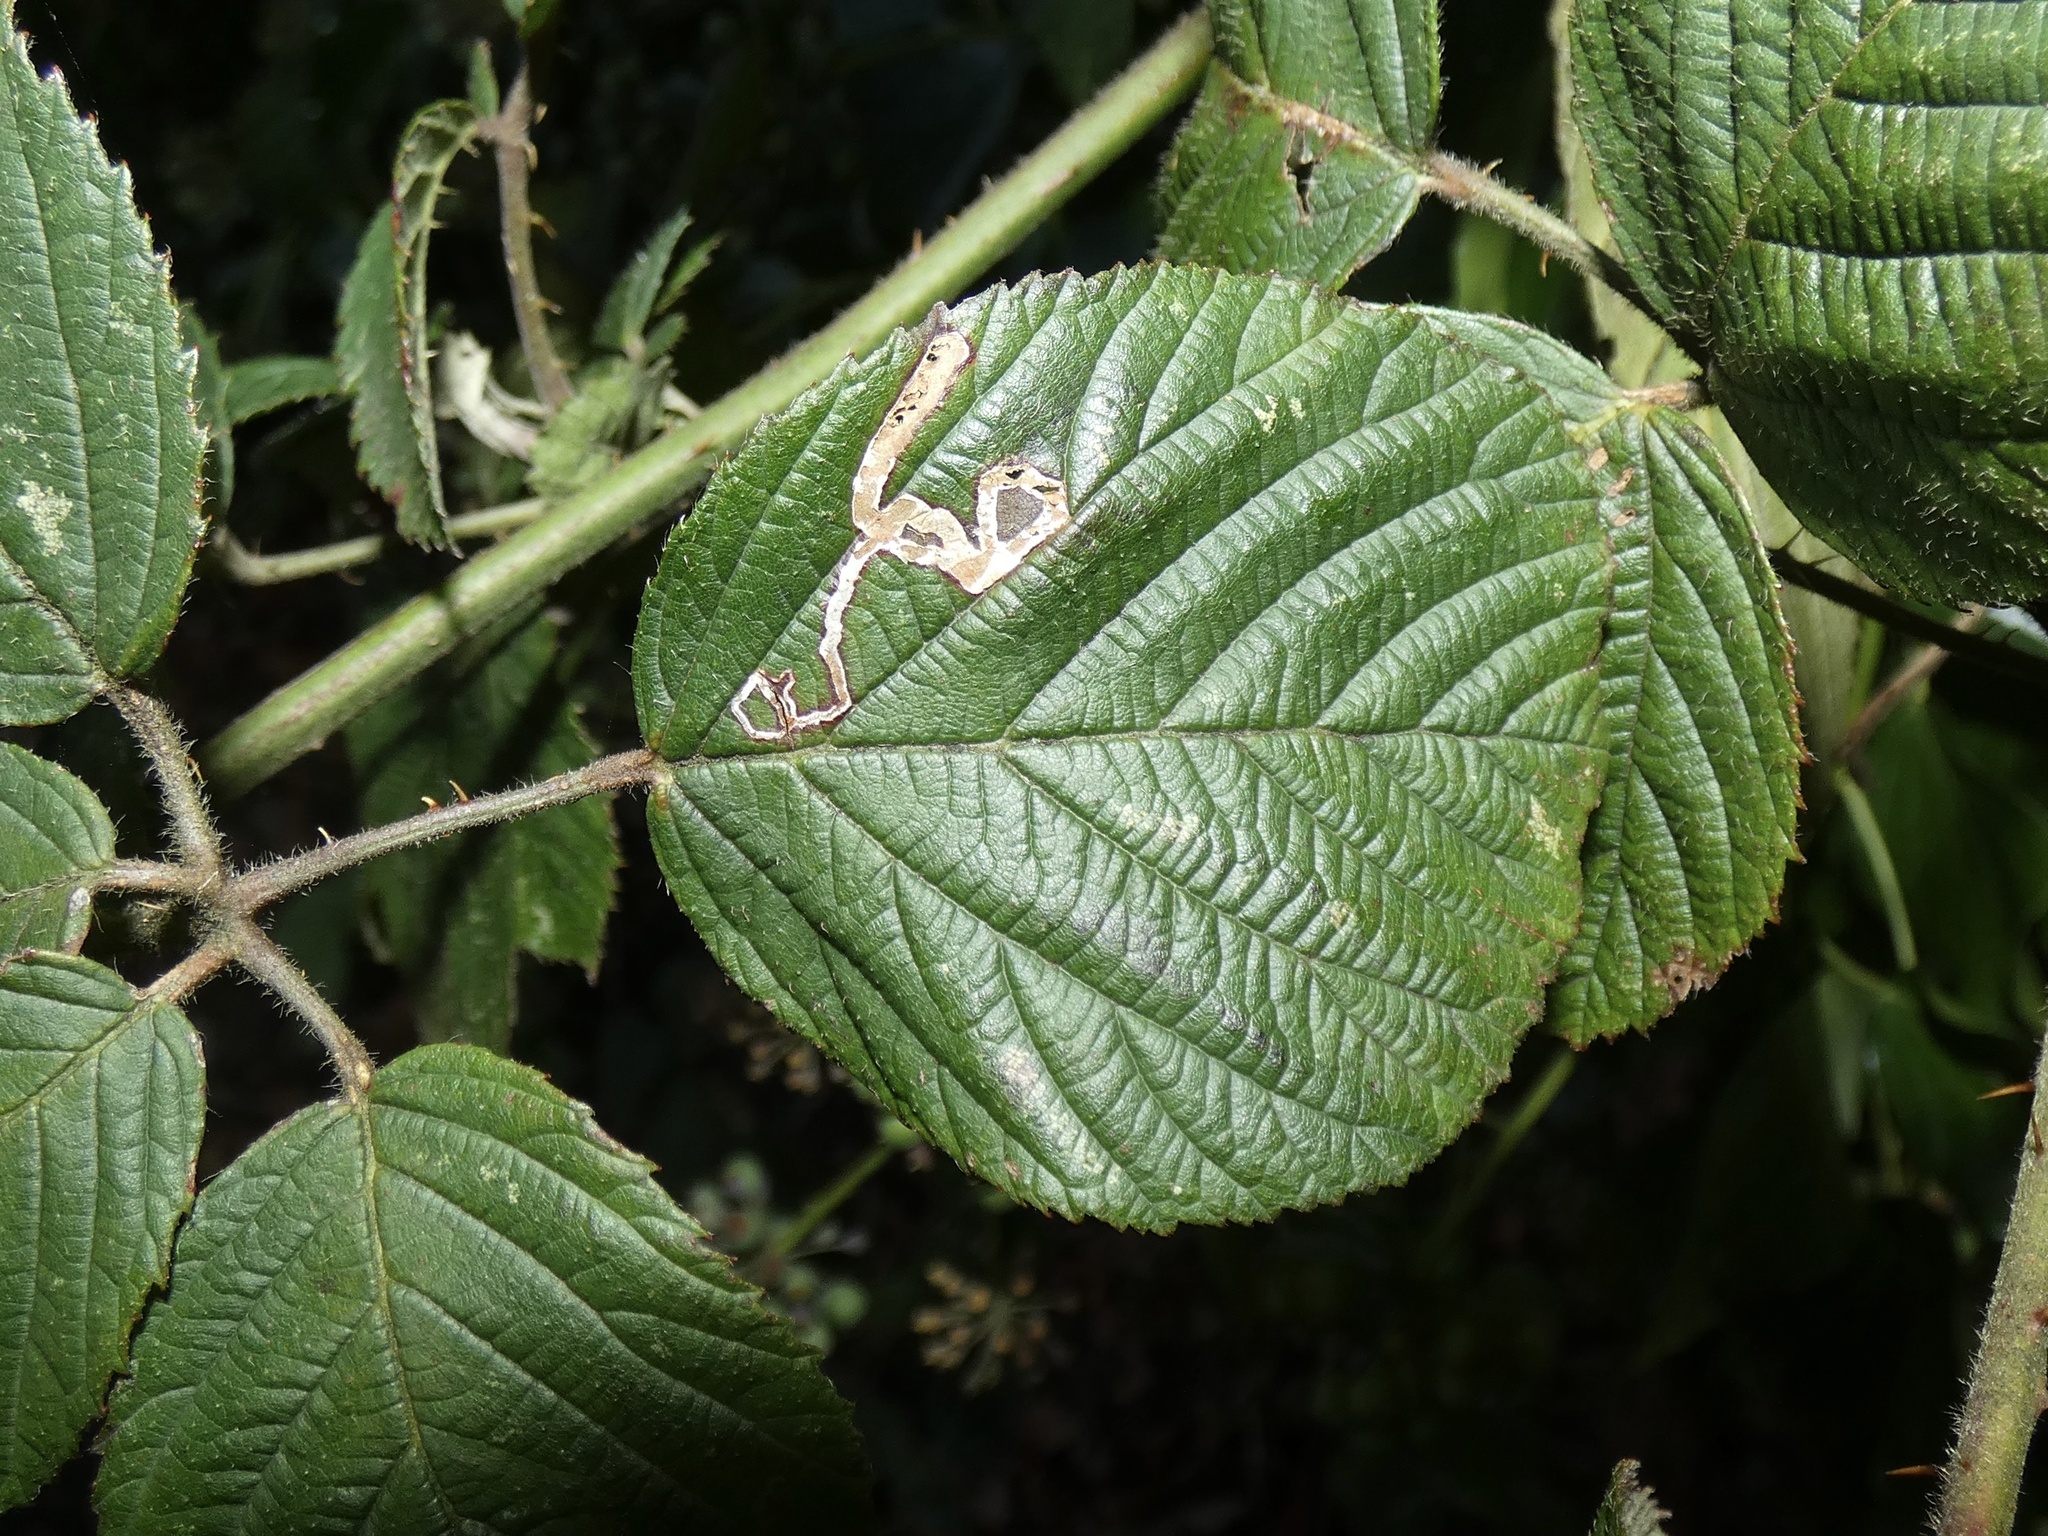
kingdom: Animalia
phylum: Arthropoda
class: Insecta
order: Lepidoptera
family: Nepticulidae
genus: Stigmella
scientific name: Stigmella aurella
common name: Golden pigmy
